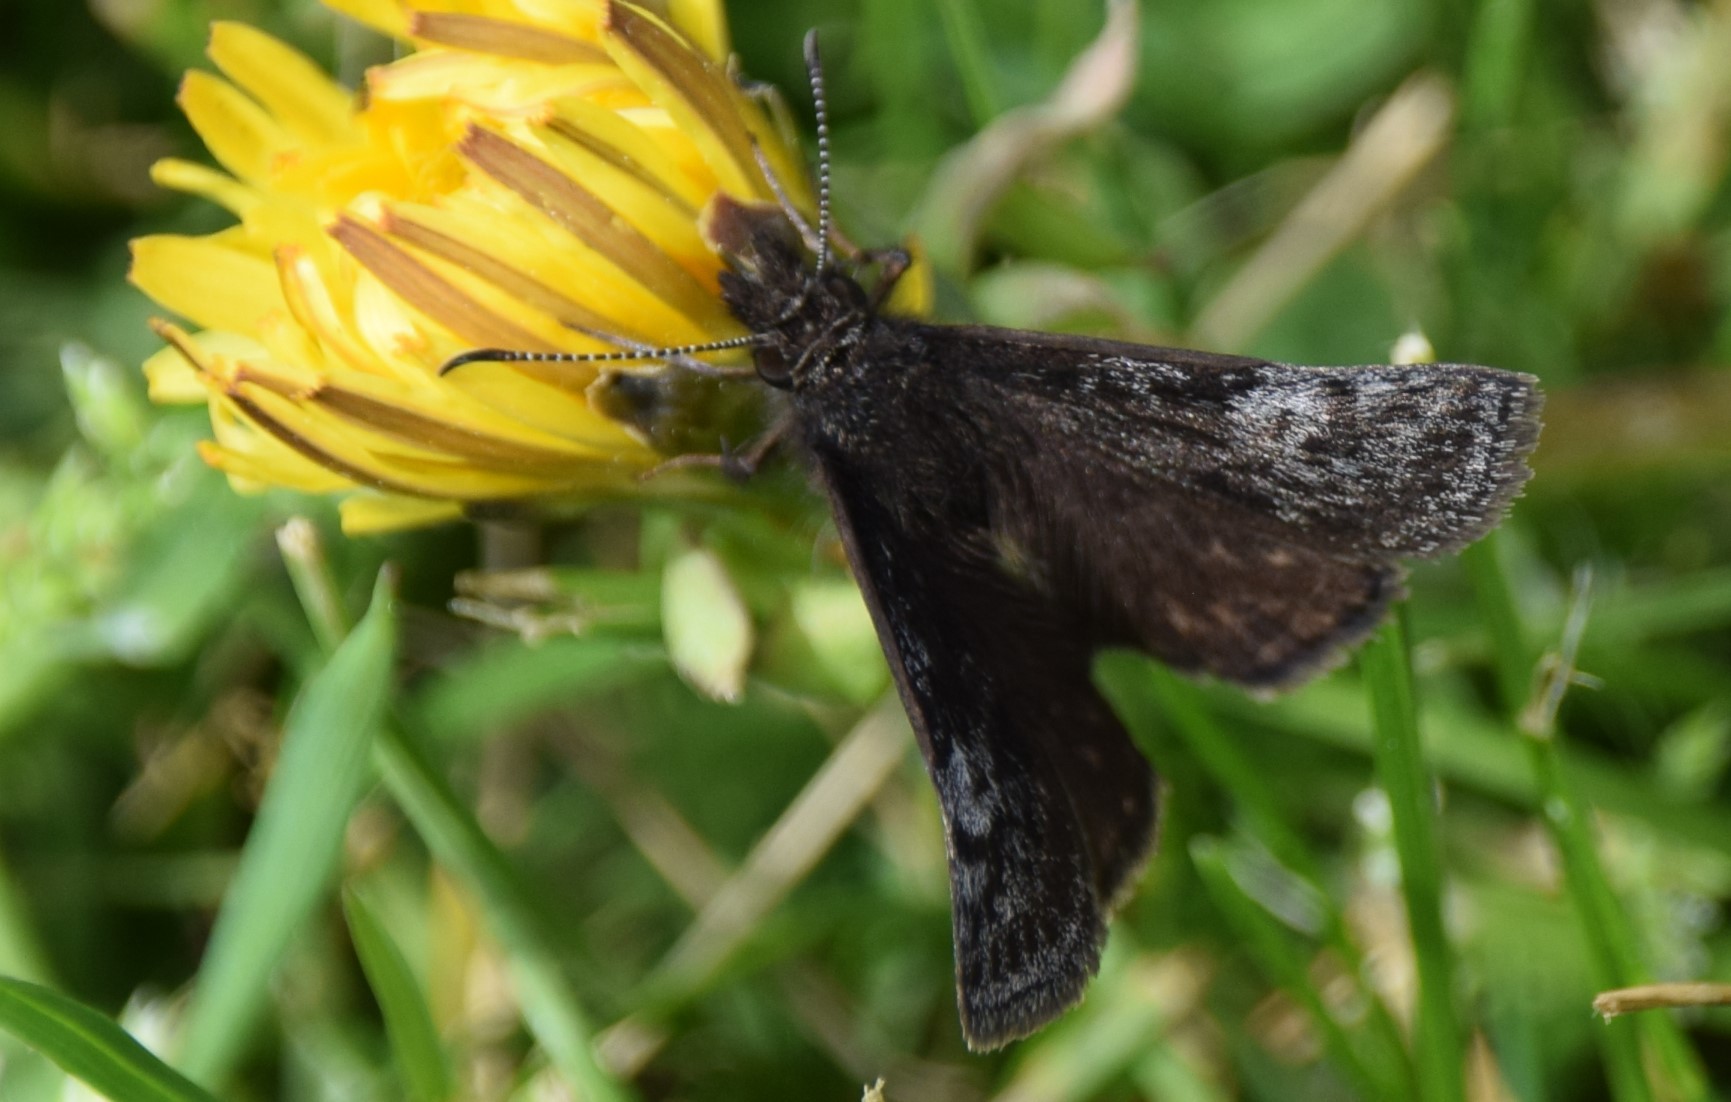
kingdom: Animalia
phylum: Arthropoda
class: Insecta
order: Lepidoptera
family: Hesperiidae
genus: Erynnis
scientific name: Erynnis icelus
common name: Dreamy duskywing
